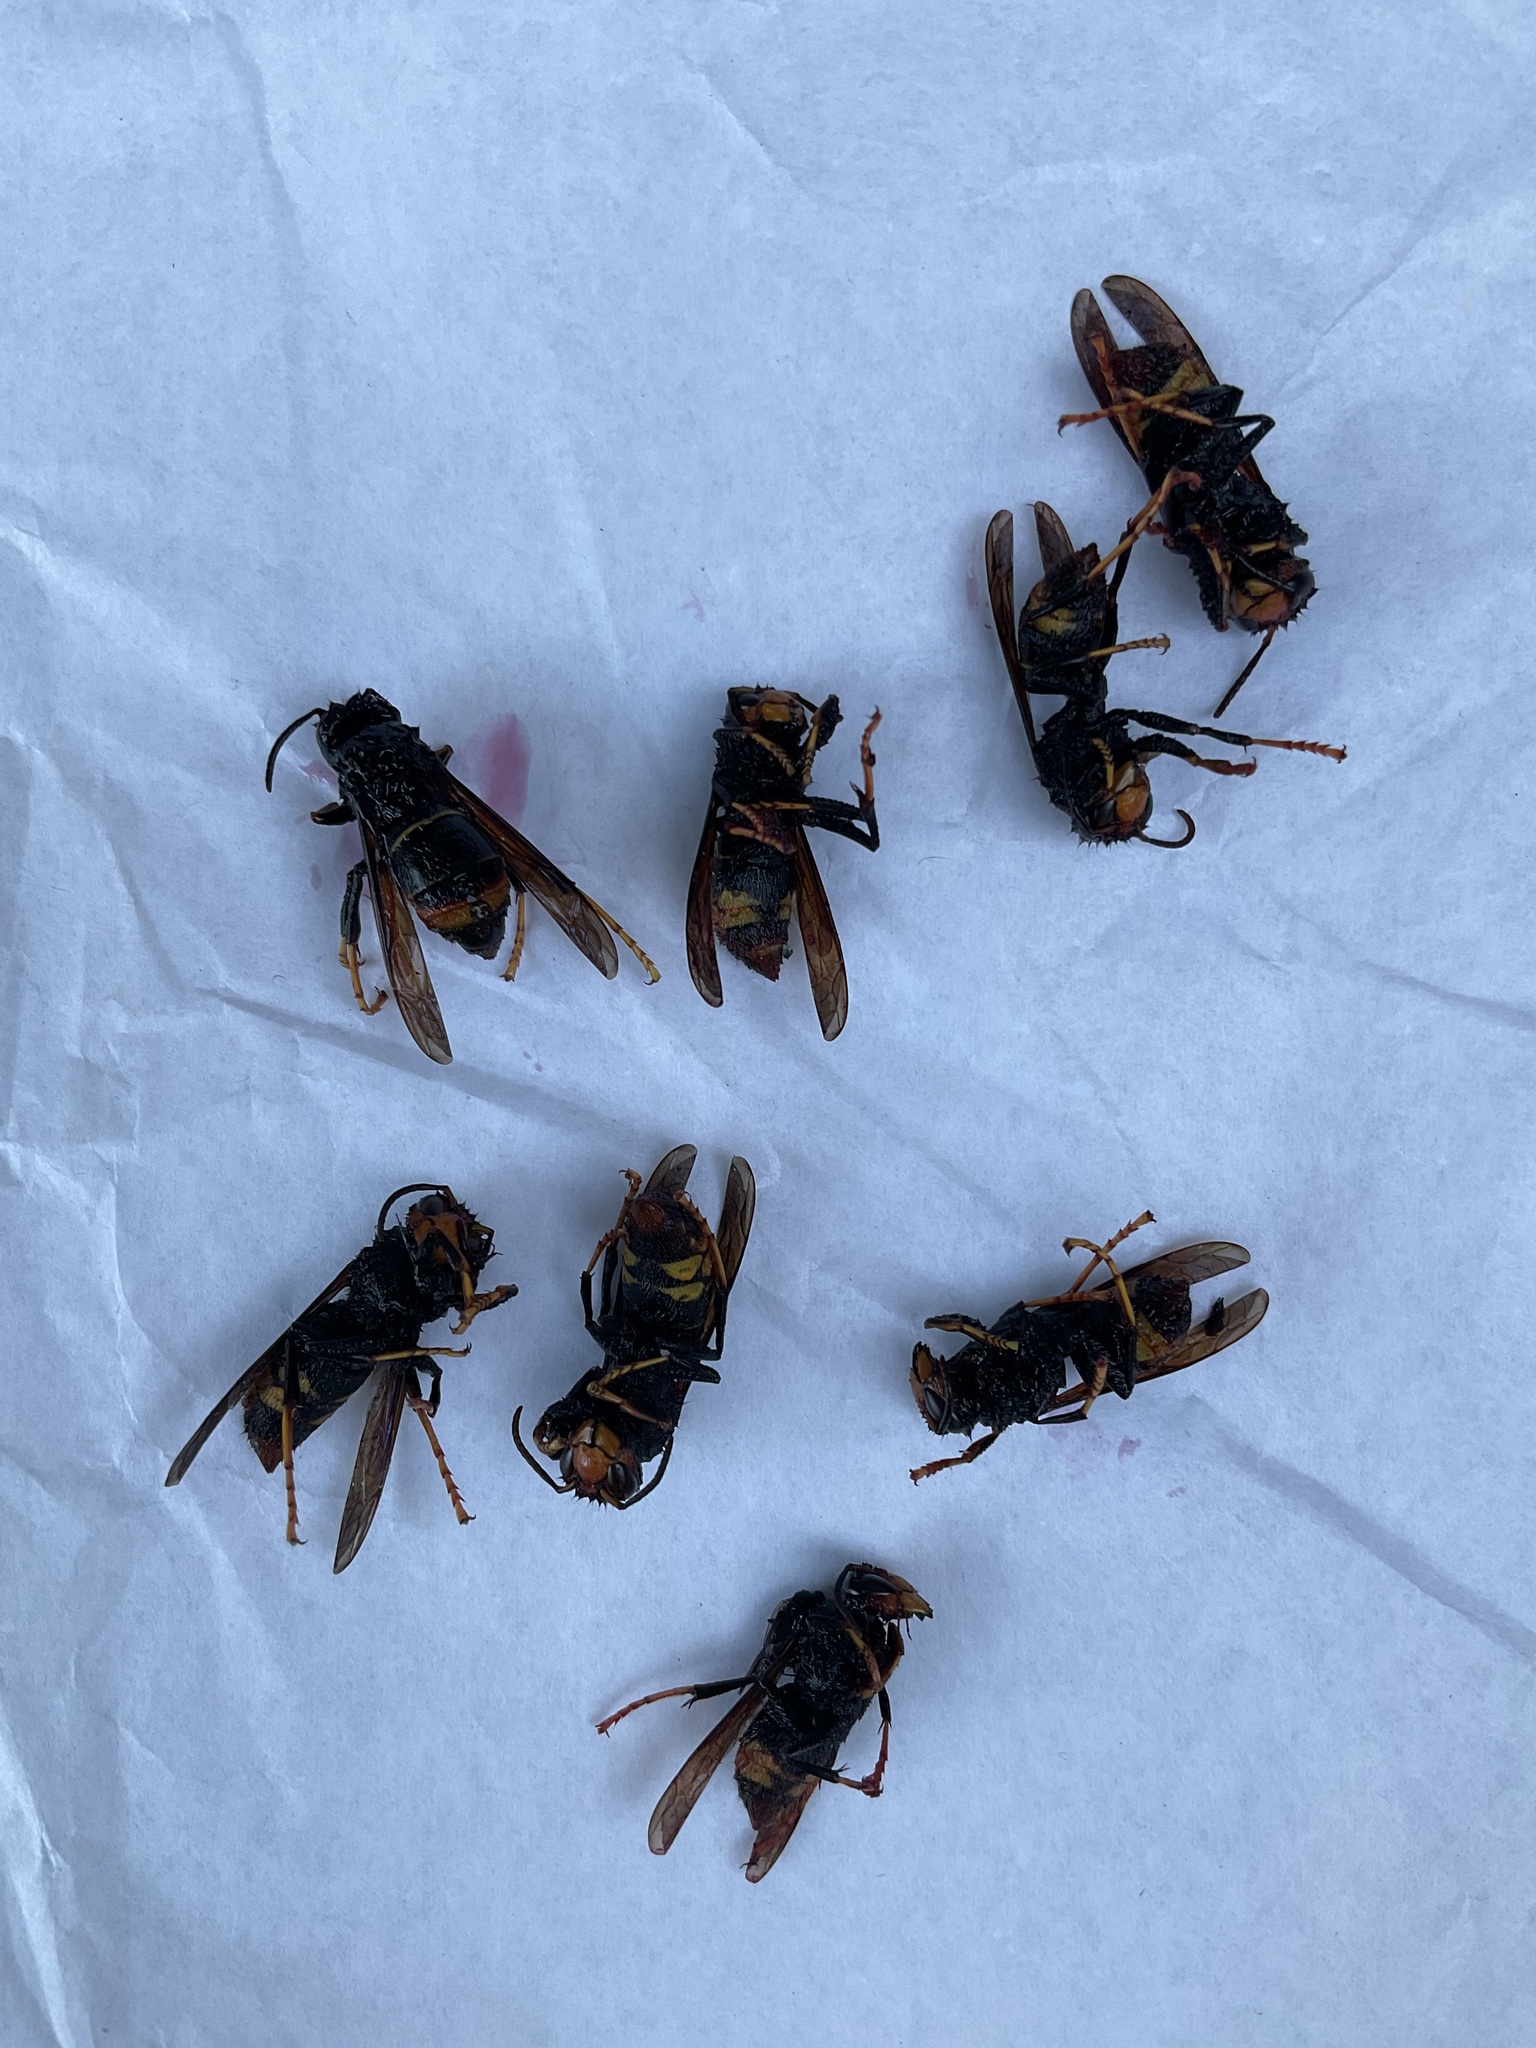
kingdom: Animalia
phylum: Arthropoda
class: Insecta
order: Hymenoptera
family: Vespidae
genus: Vespa
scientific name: Vespa velutina
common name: Asian hornet
